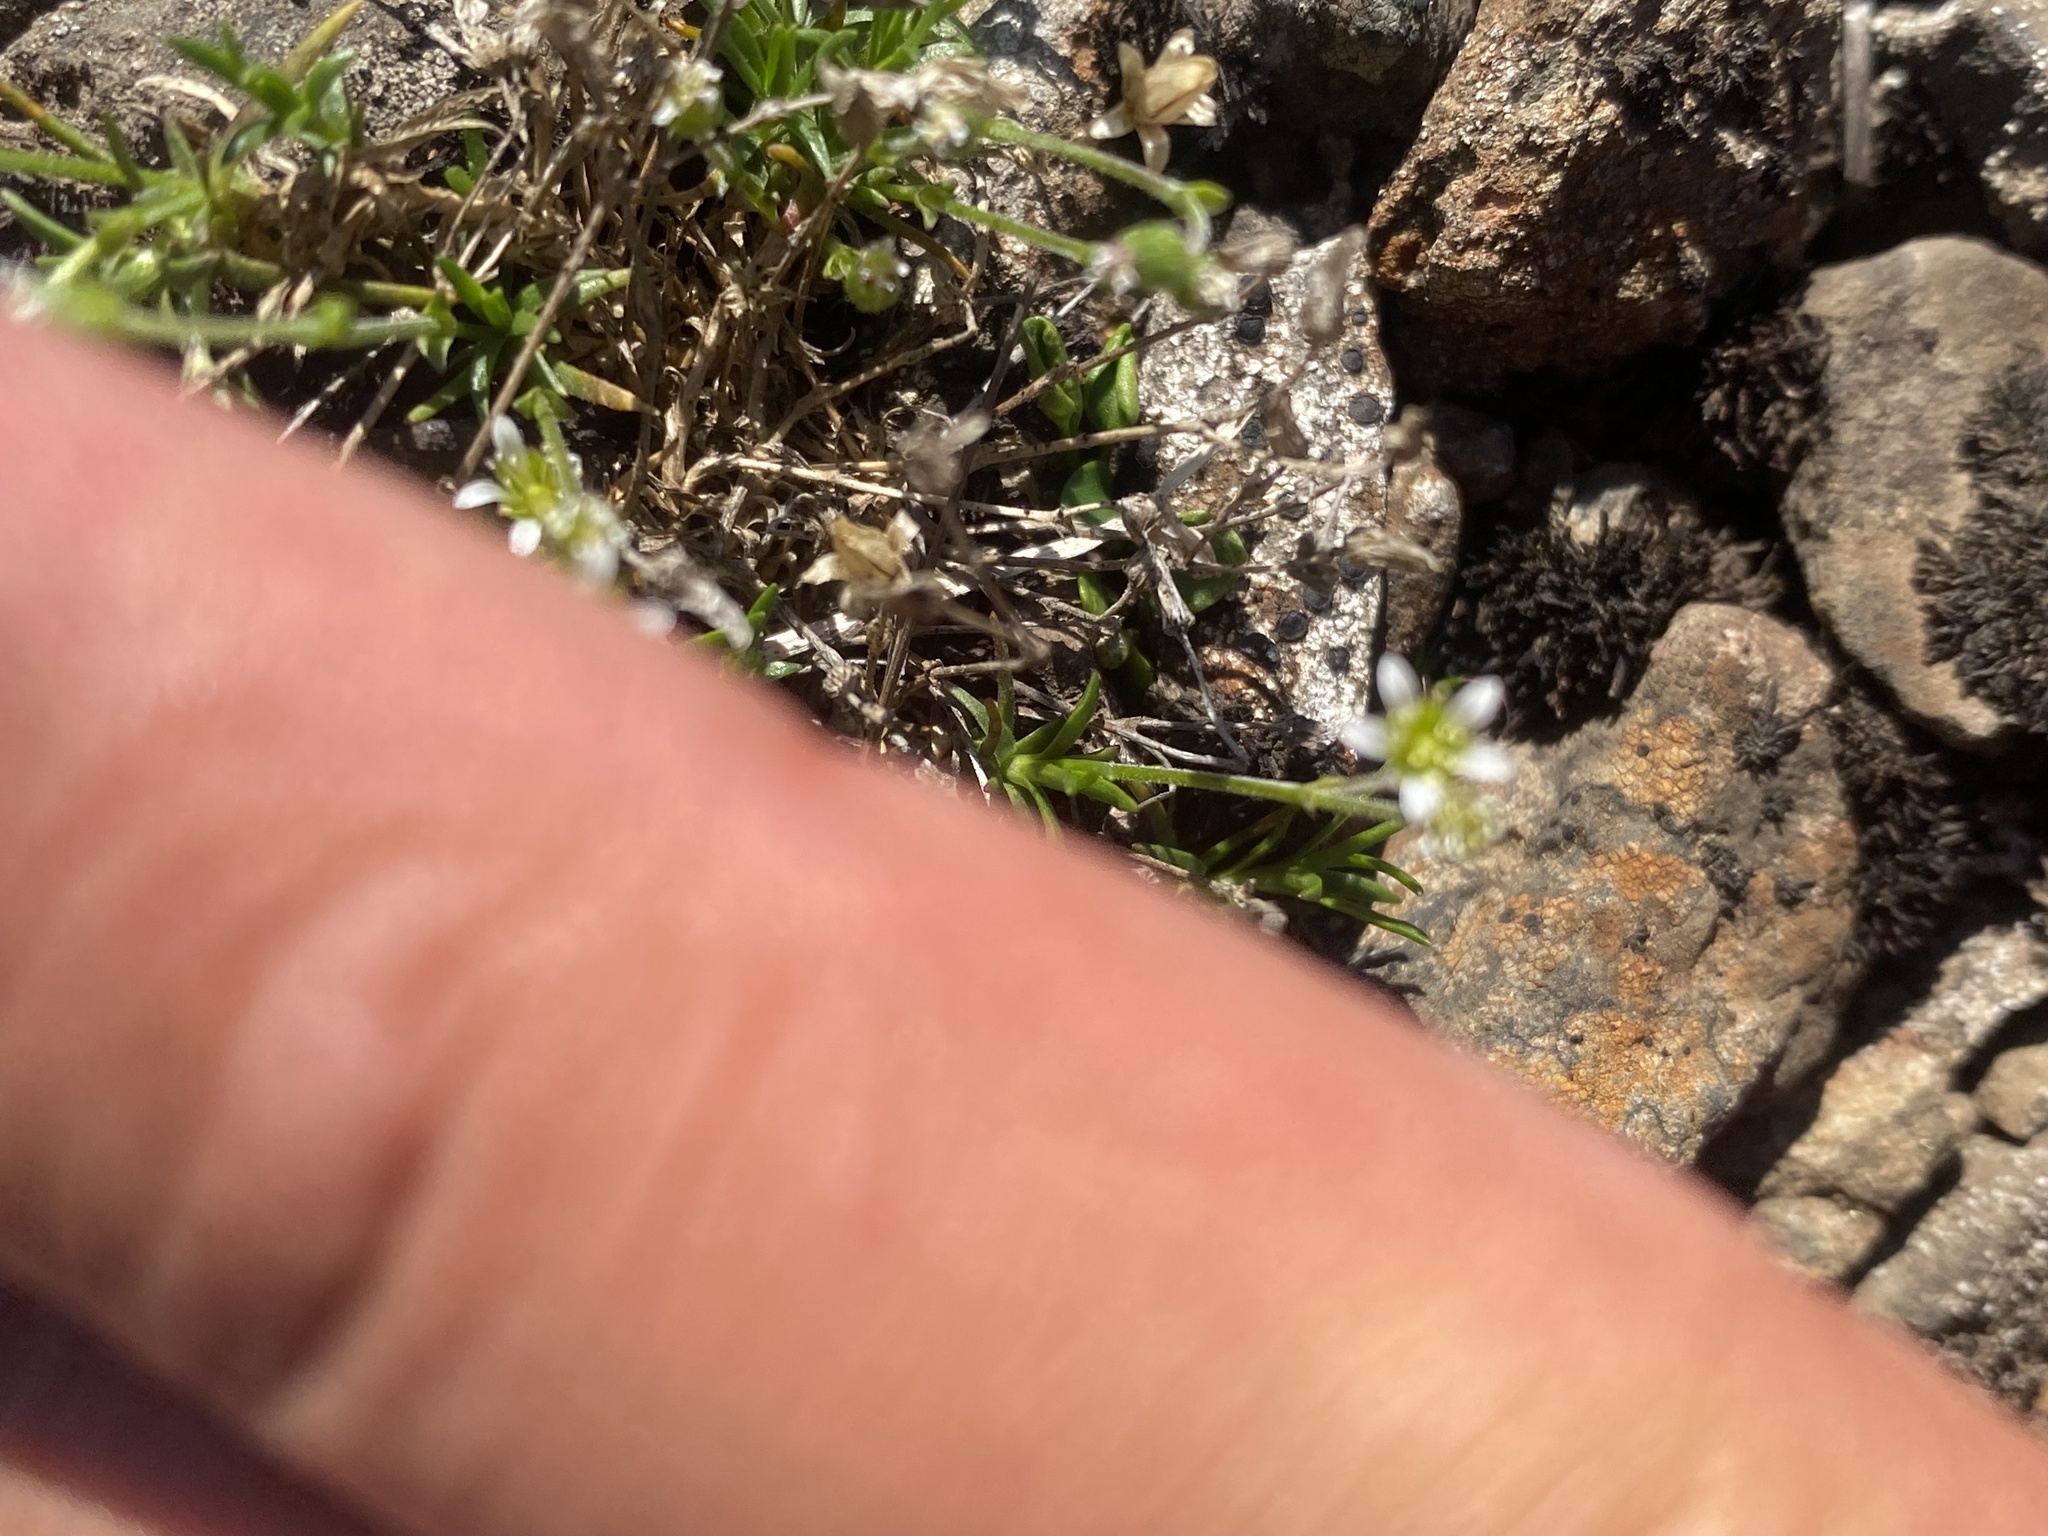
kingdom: Plantae
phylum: Tracheophyta
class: Magnoliopsida
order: Caryophyllales
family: Caryophyllaceae
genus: Cherleria
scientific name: Cherleria biflora
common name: Mountain sandwort
